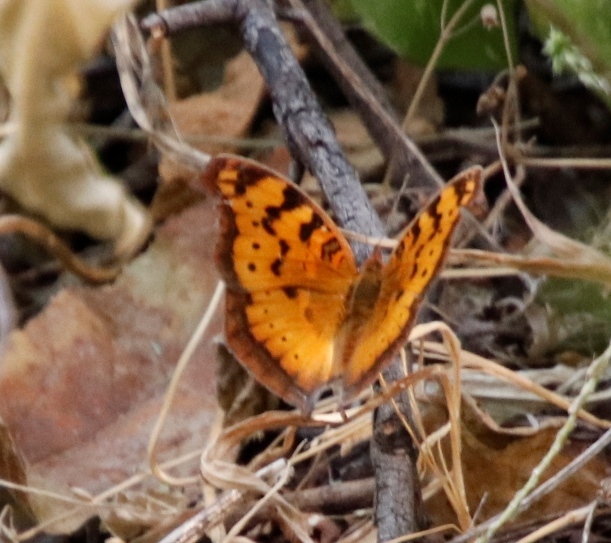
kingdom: Animalia
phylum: Arthropoda
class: Insecta
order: Lepidoptera
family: Nymphalidae
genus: Junonia
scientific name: Junonia antilope
